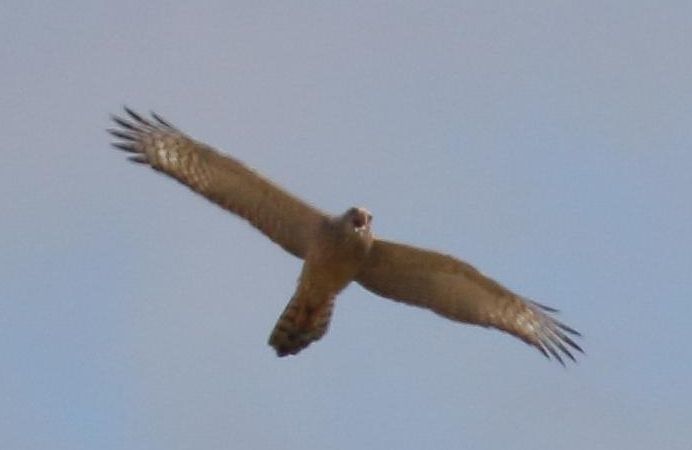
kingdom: Animalia
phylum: Chordata
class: Aves
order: Accipitriformes
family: Accipitridae
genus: Melierax
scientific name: Melierax canorus
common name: Pale chanting-goshawk
